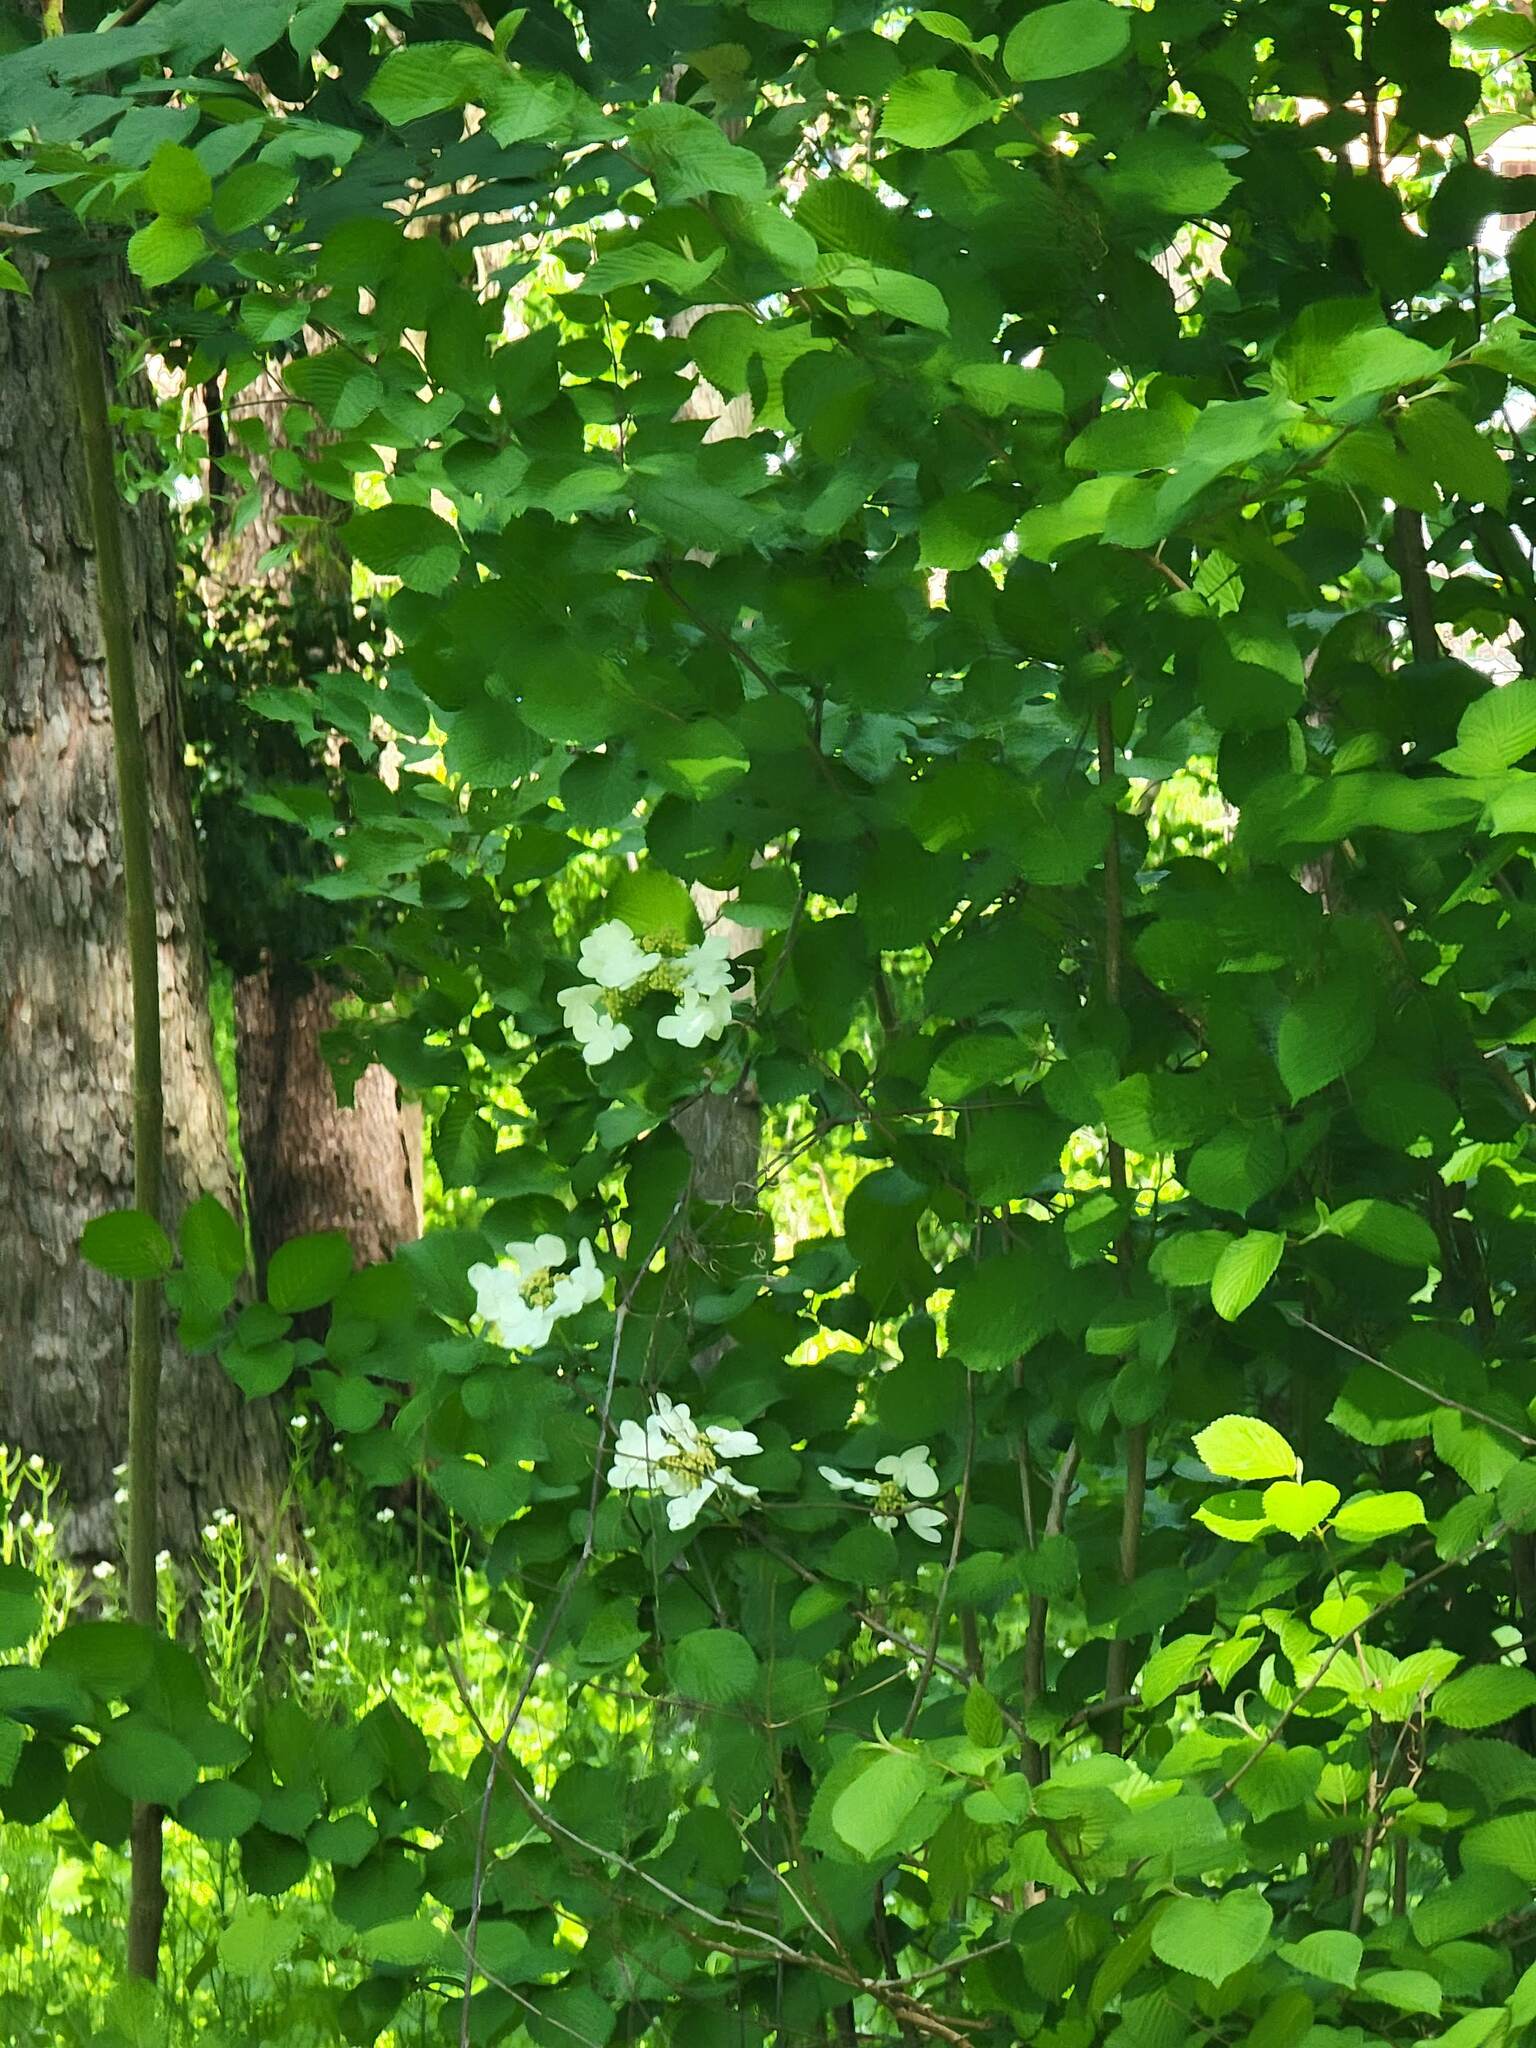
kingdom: Plantae
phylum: Tracheophyta
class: Magnoliopsida
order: Dipsacales
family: Viburnaceae
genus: Viburnum
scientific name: Viburnum plicatum
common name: Japanese snowball
